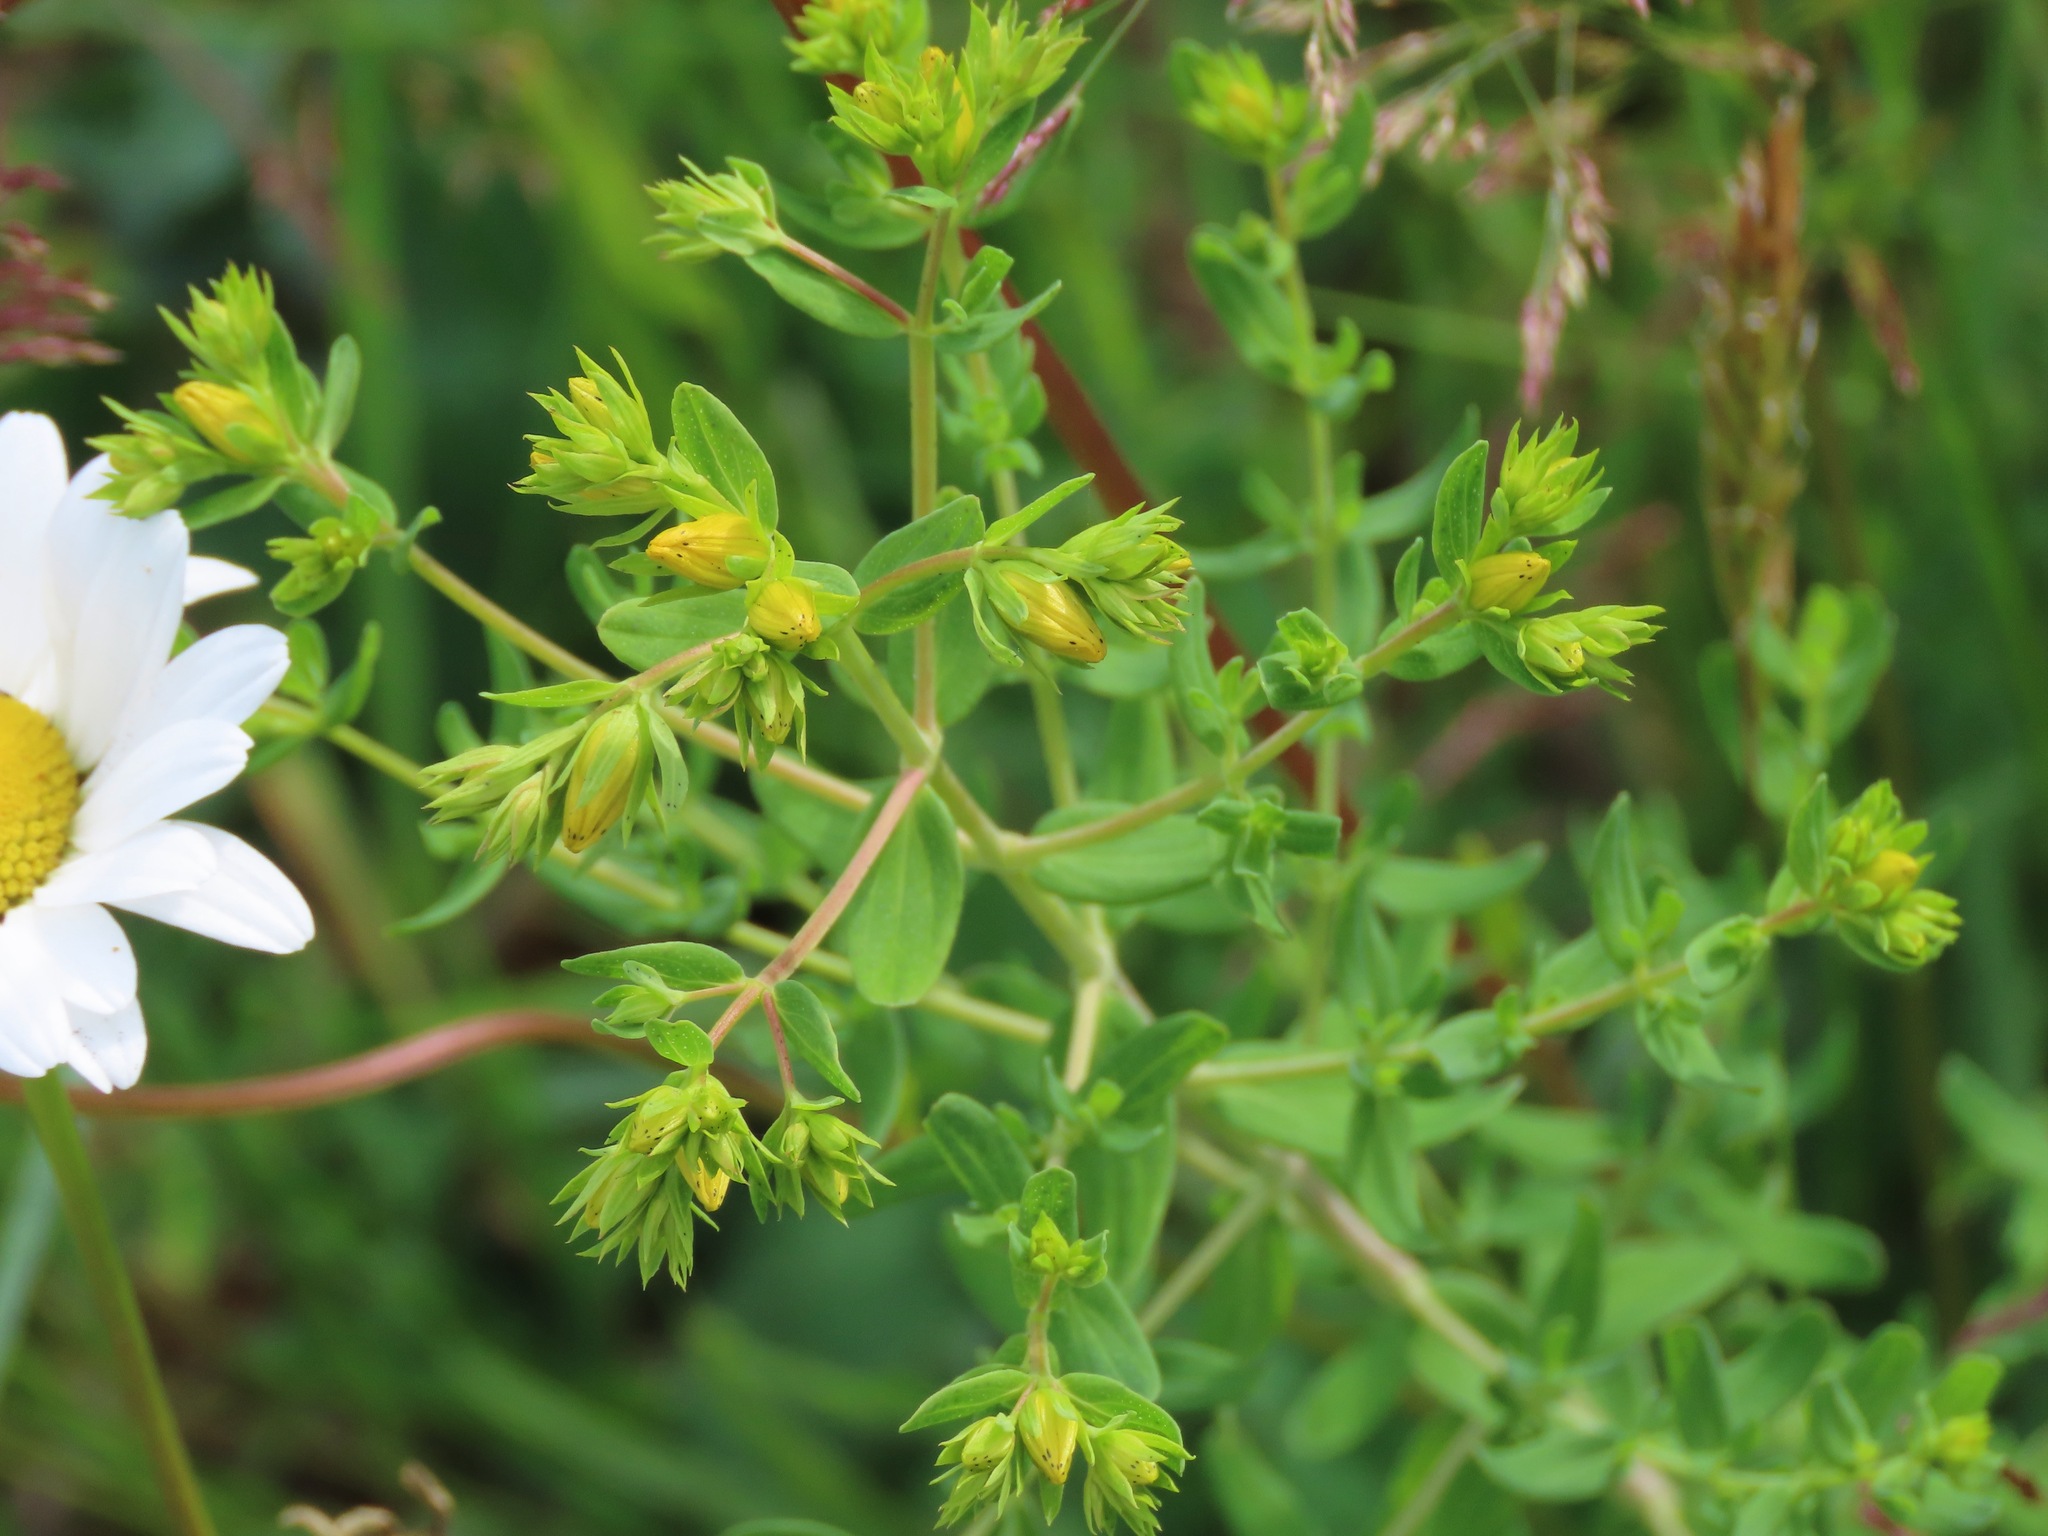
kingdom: Plantae
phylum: Tracheophyta
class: Magnoliopsida
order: Malpighiales
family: Hypericaceae
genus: Hypericum
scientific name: Hypericum perforatum
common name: Common st. johnswort
